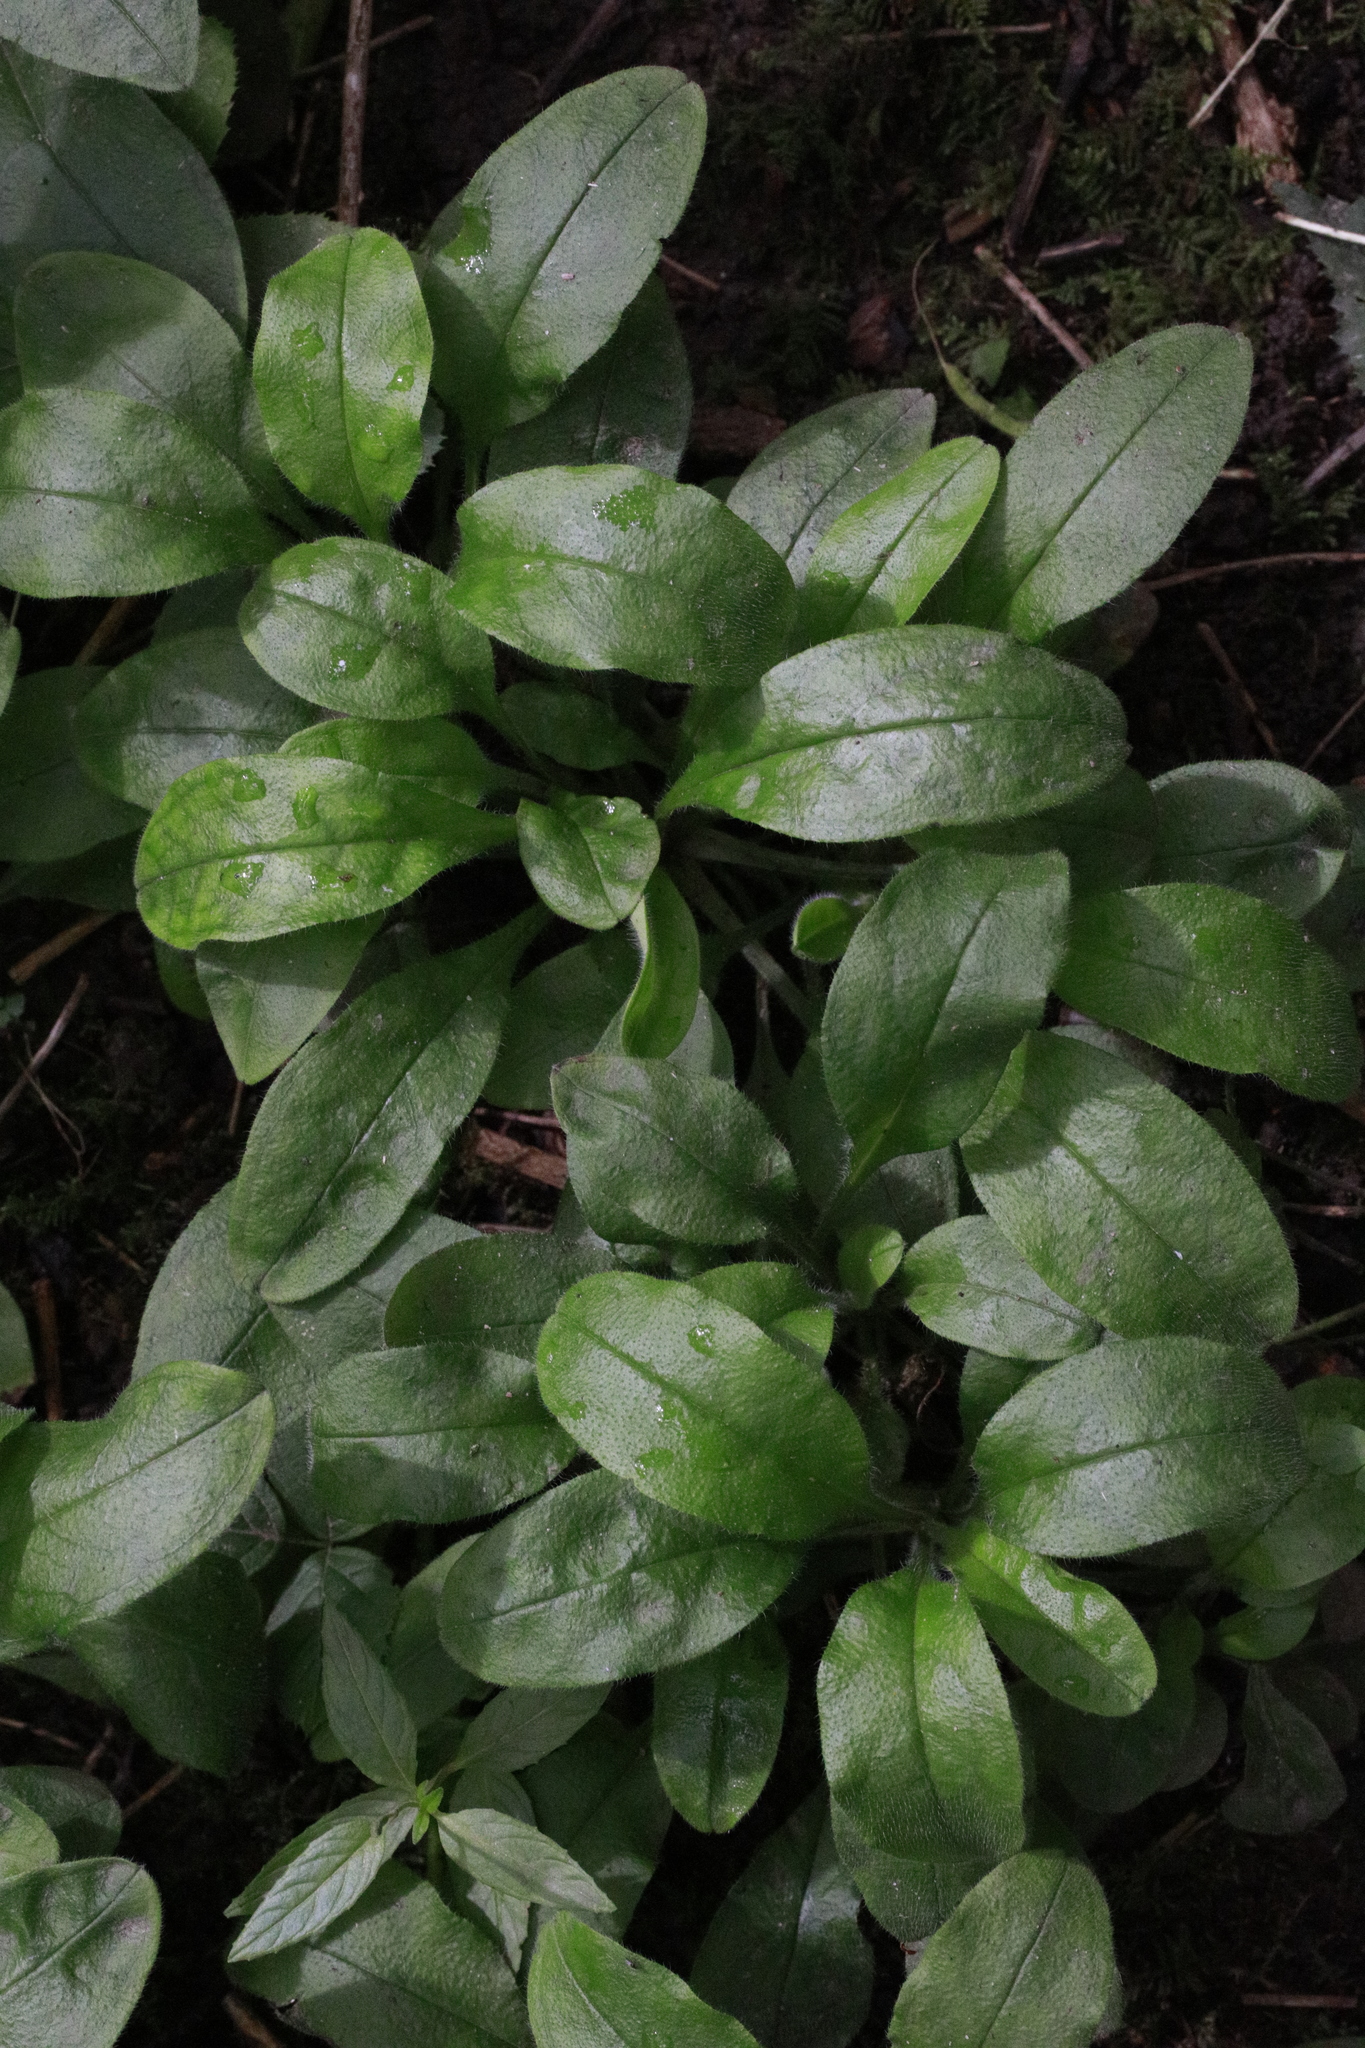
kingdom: Plantae
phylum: Tracheophyta
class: Magnoliopsida
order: Boraginales
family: Boraginaceae
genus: Myosotis
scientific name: Myosotis sylvatica
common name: Wood forget-me-not
